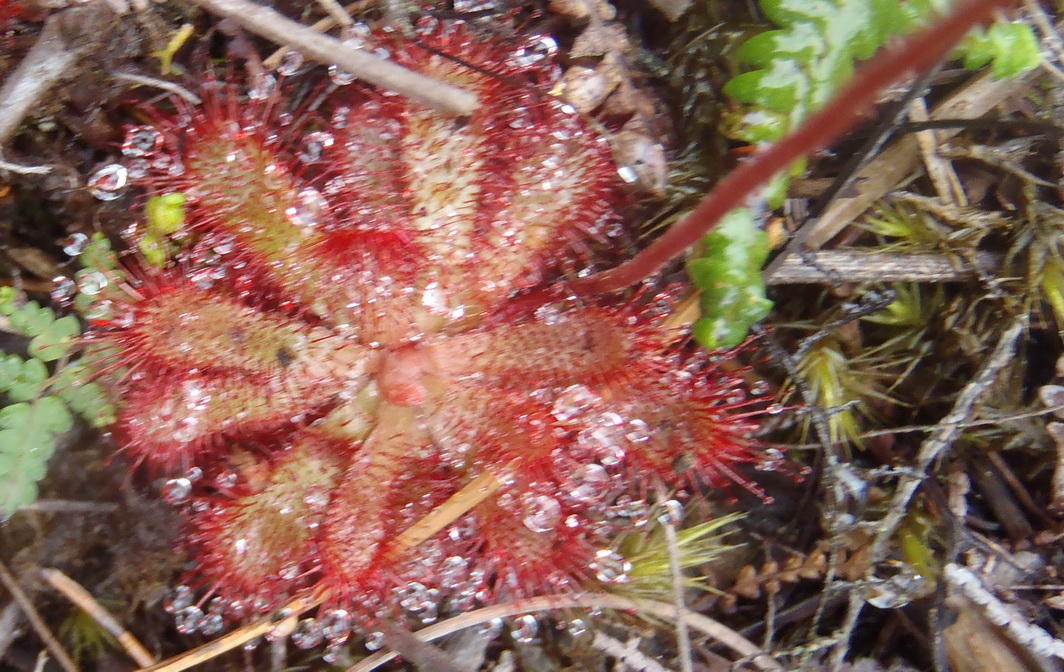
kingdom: Plantae
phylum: Tracheophyta
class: Magnoliopsida
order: Caryophyllales
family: Droseraceae
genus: Drosera
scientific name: Drosera aliciae
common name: Alice sundew
